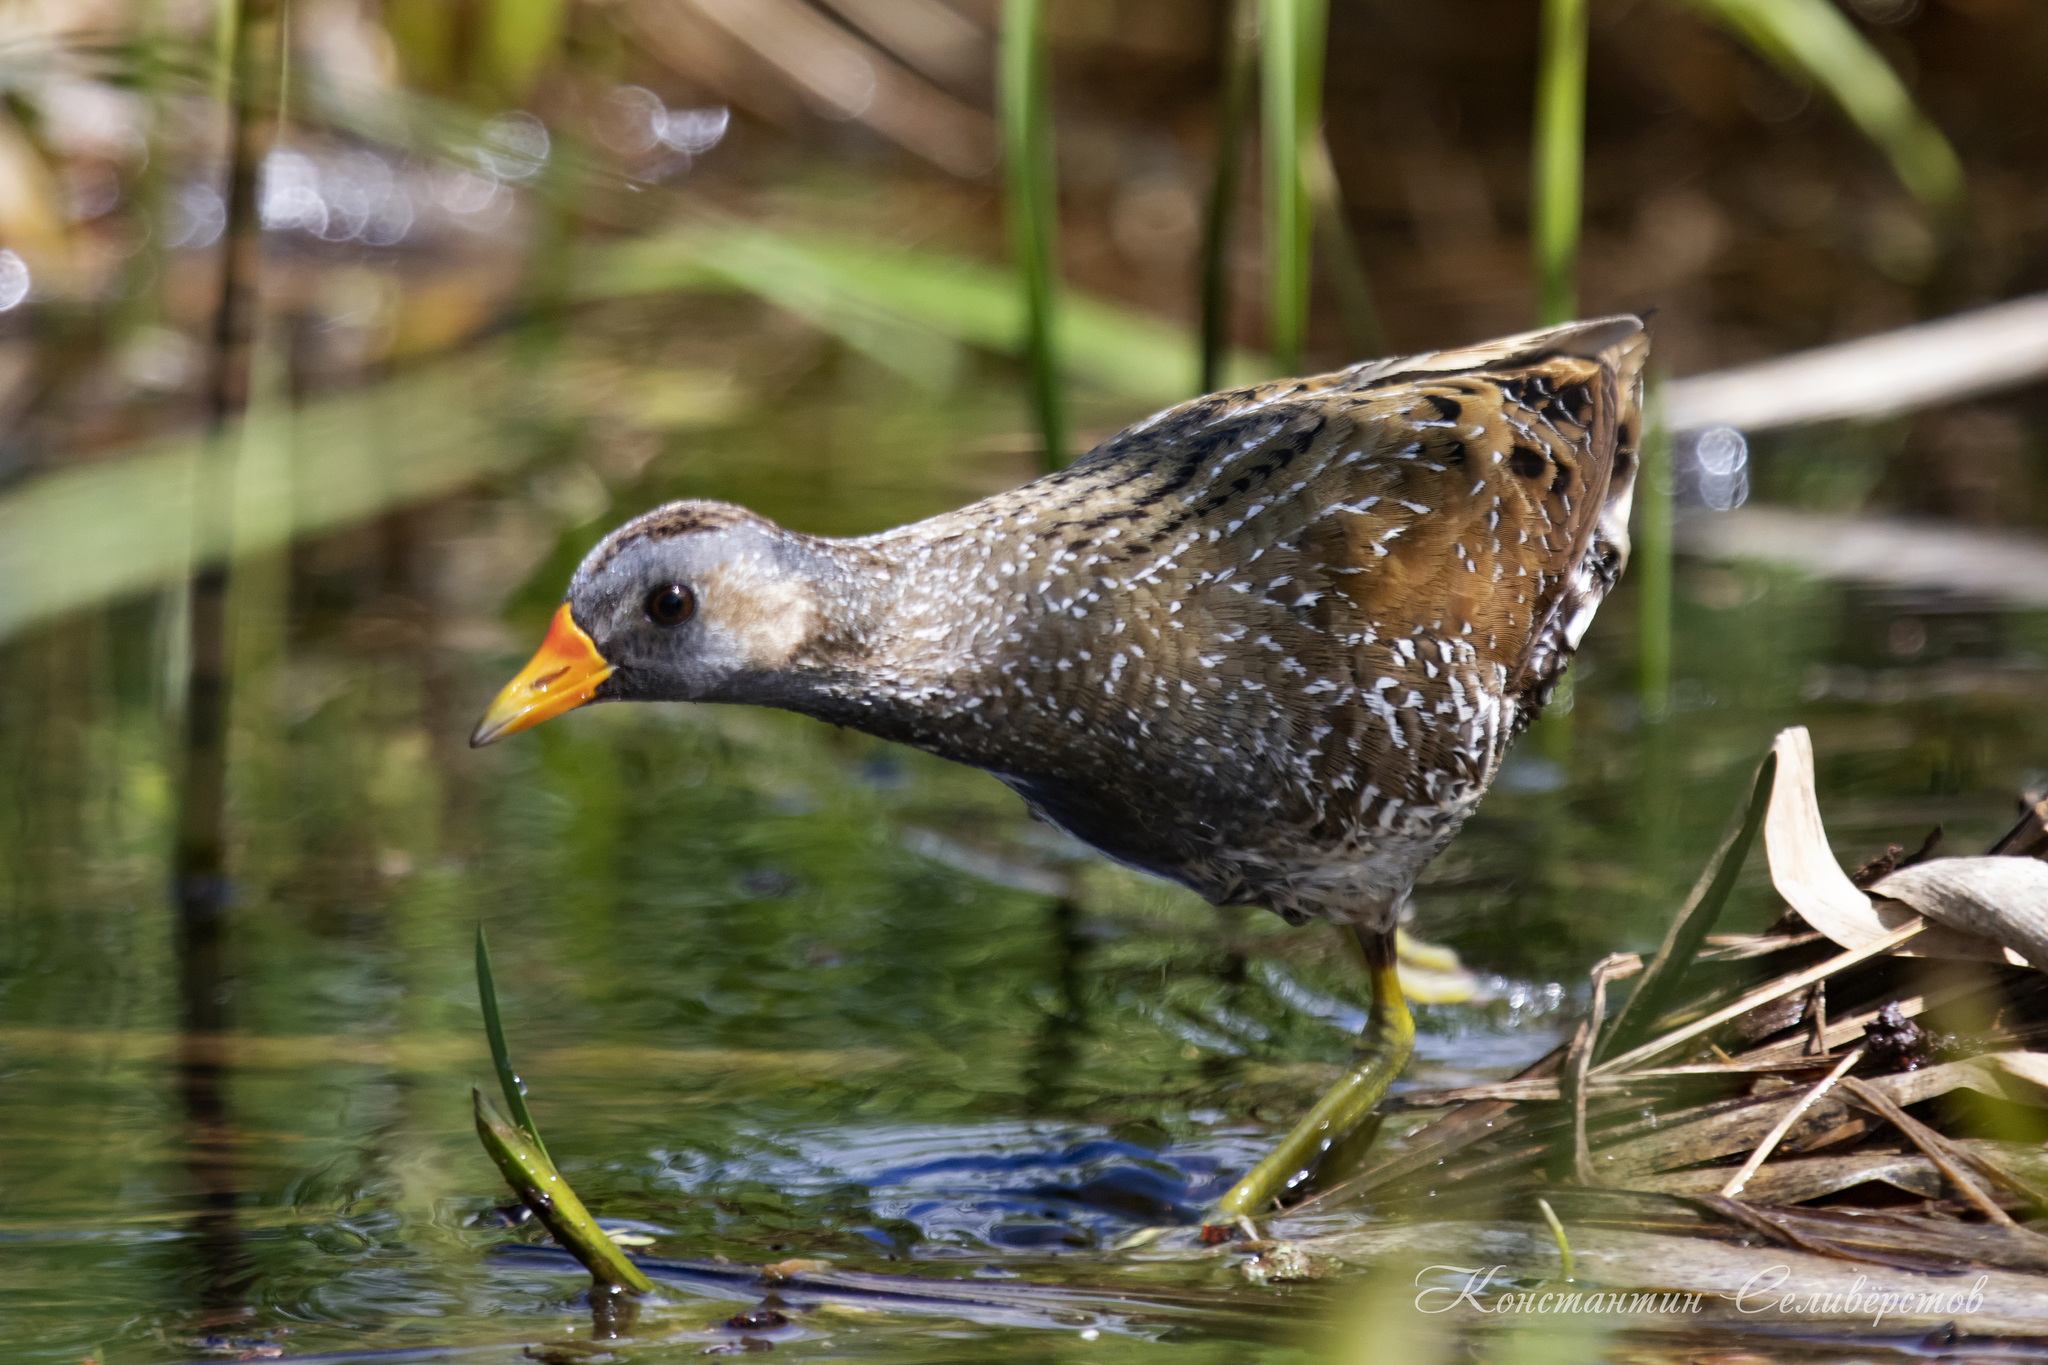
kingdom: Animalia
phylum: Chordata
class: Aves
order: Gruiformes
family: Rallidae
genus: Porzana
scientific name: Porzana porzana
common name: Spotted crake
